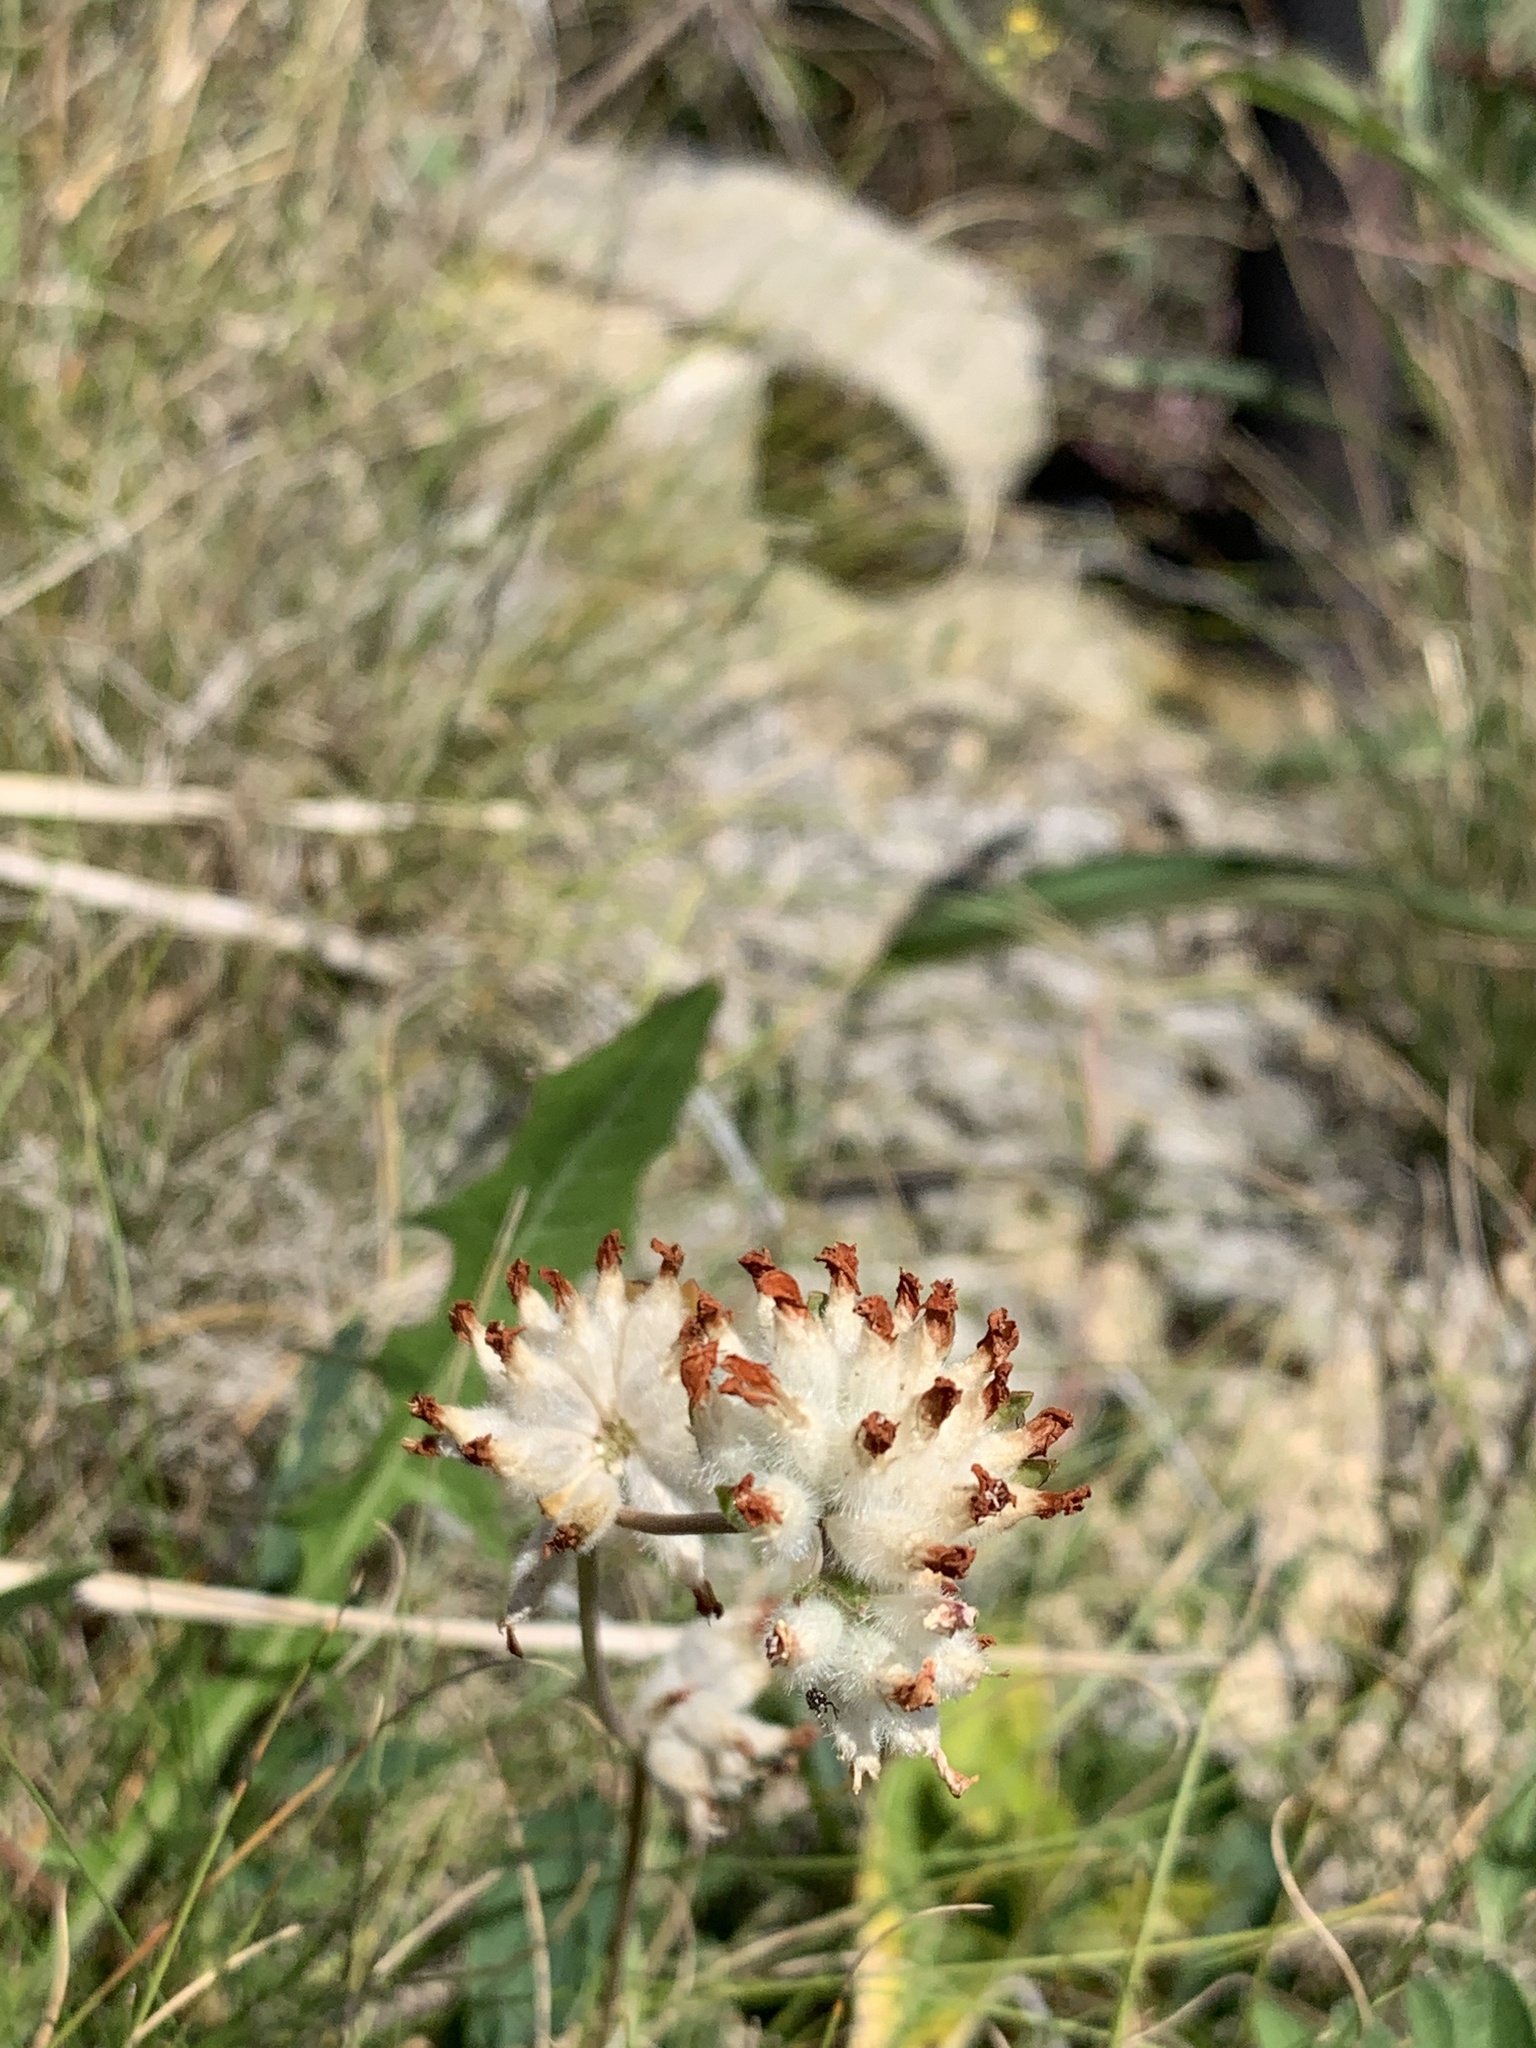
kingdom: Plantae
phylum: Tracheophyta
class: Magnoliopsida
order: Fabales
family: Fabaceae
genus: Anthyllis
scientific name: Anthyllis vulneraria
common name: Kidney vetch
